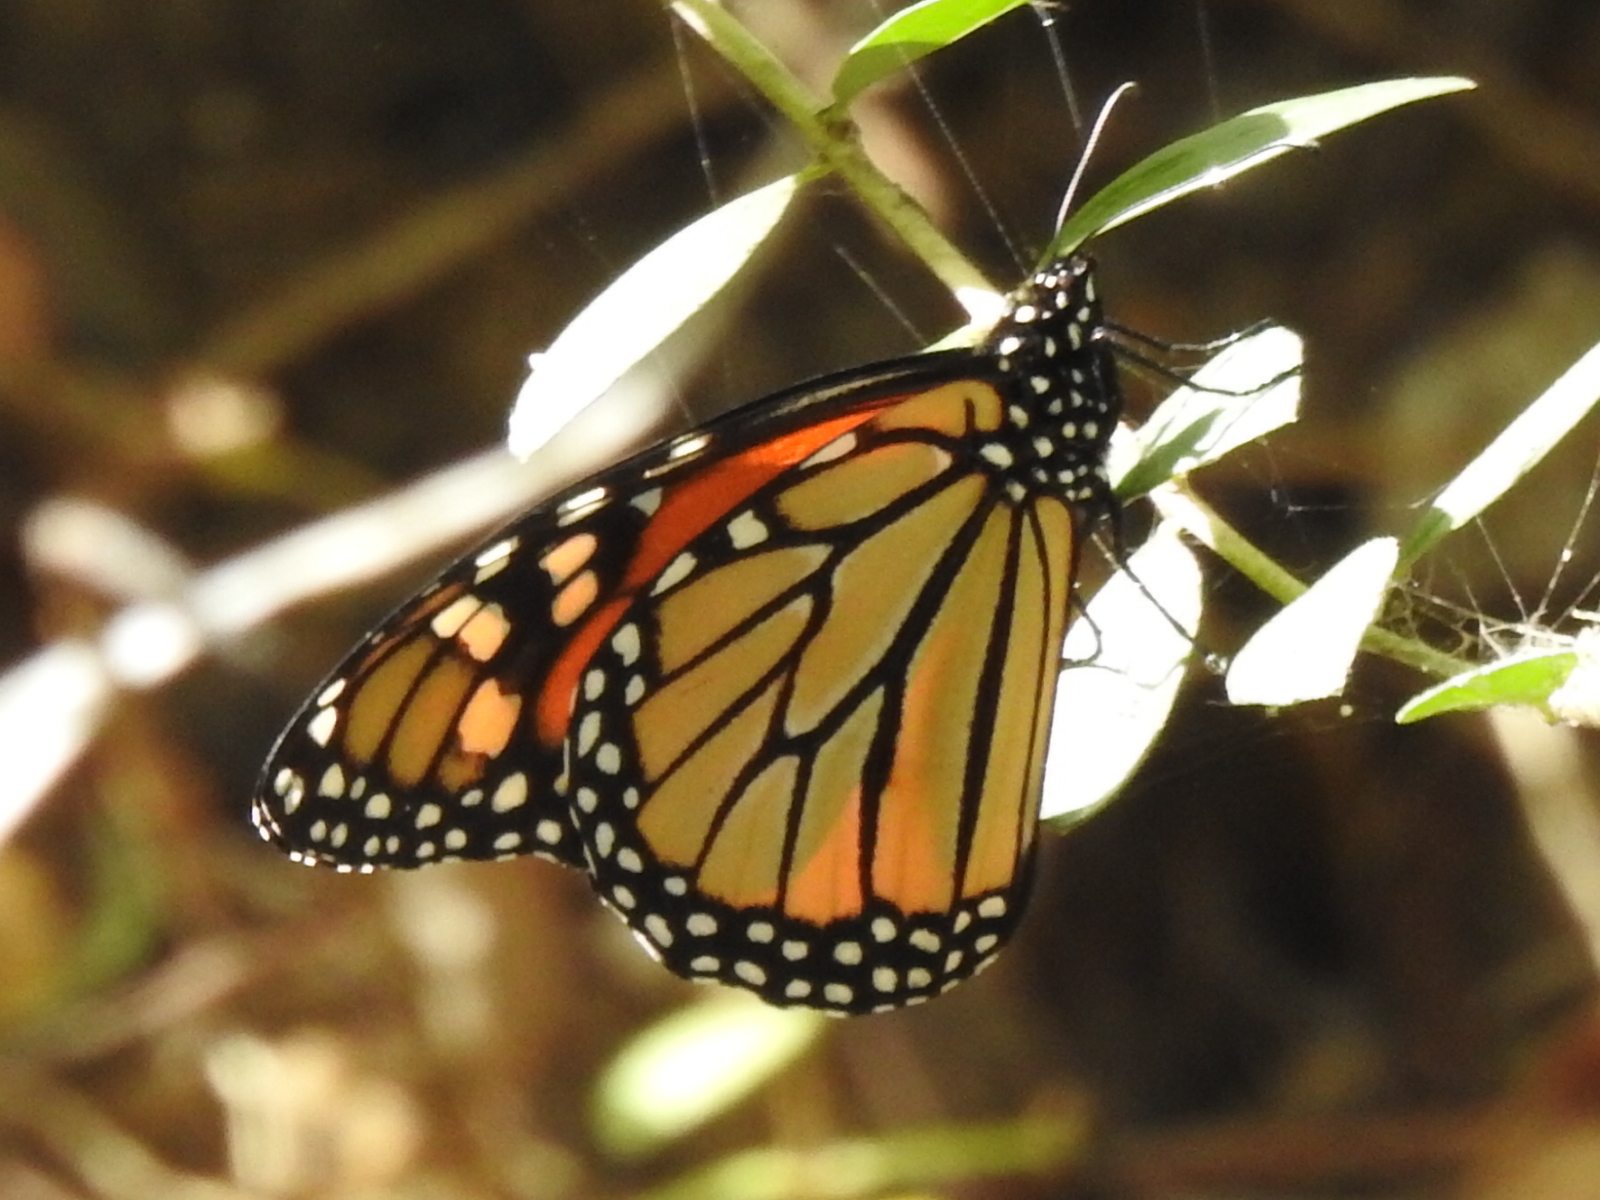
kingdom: Animalia
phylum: Arthropoda
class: Insecta
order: Lepidoptera
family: Nymphalidae
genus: Danaus
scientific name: Danaus plexippus
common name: Monarch
